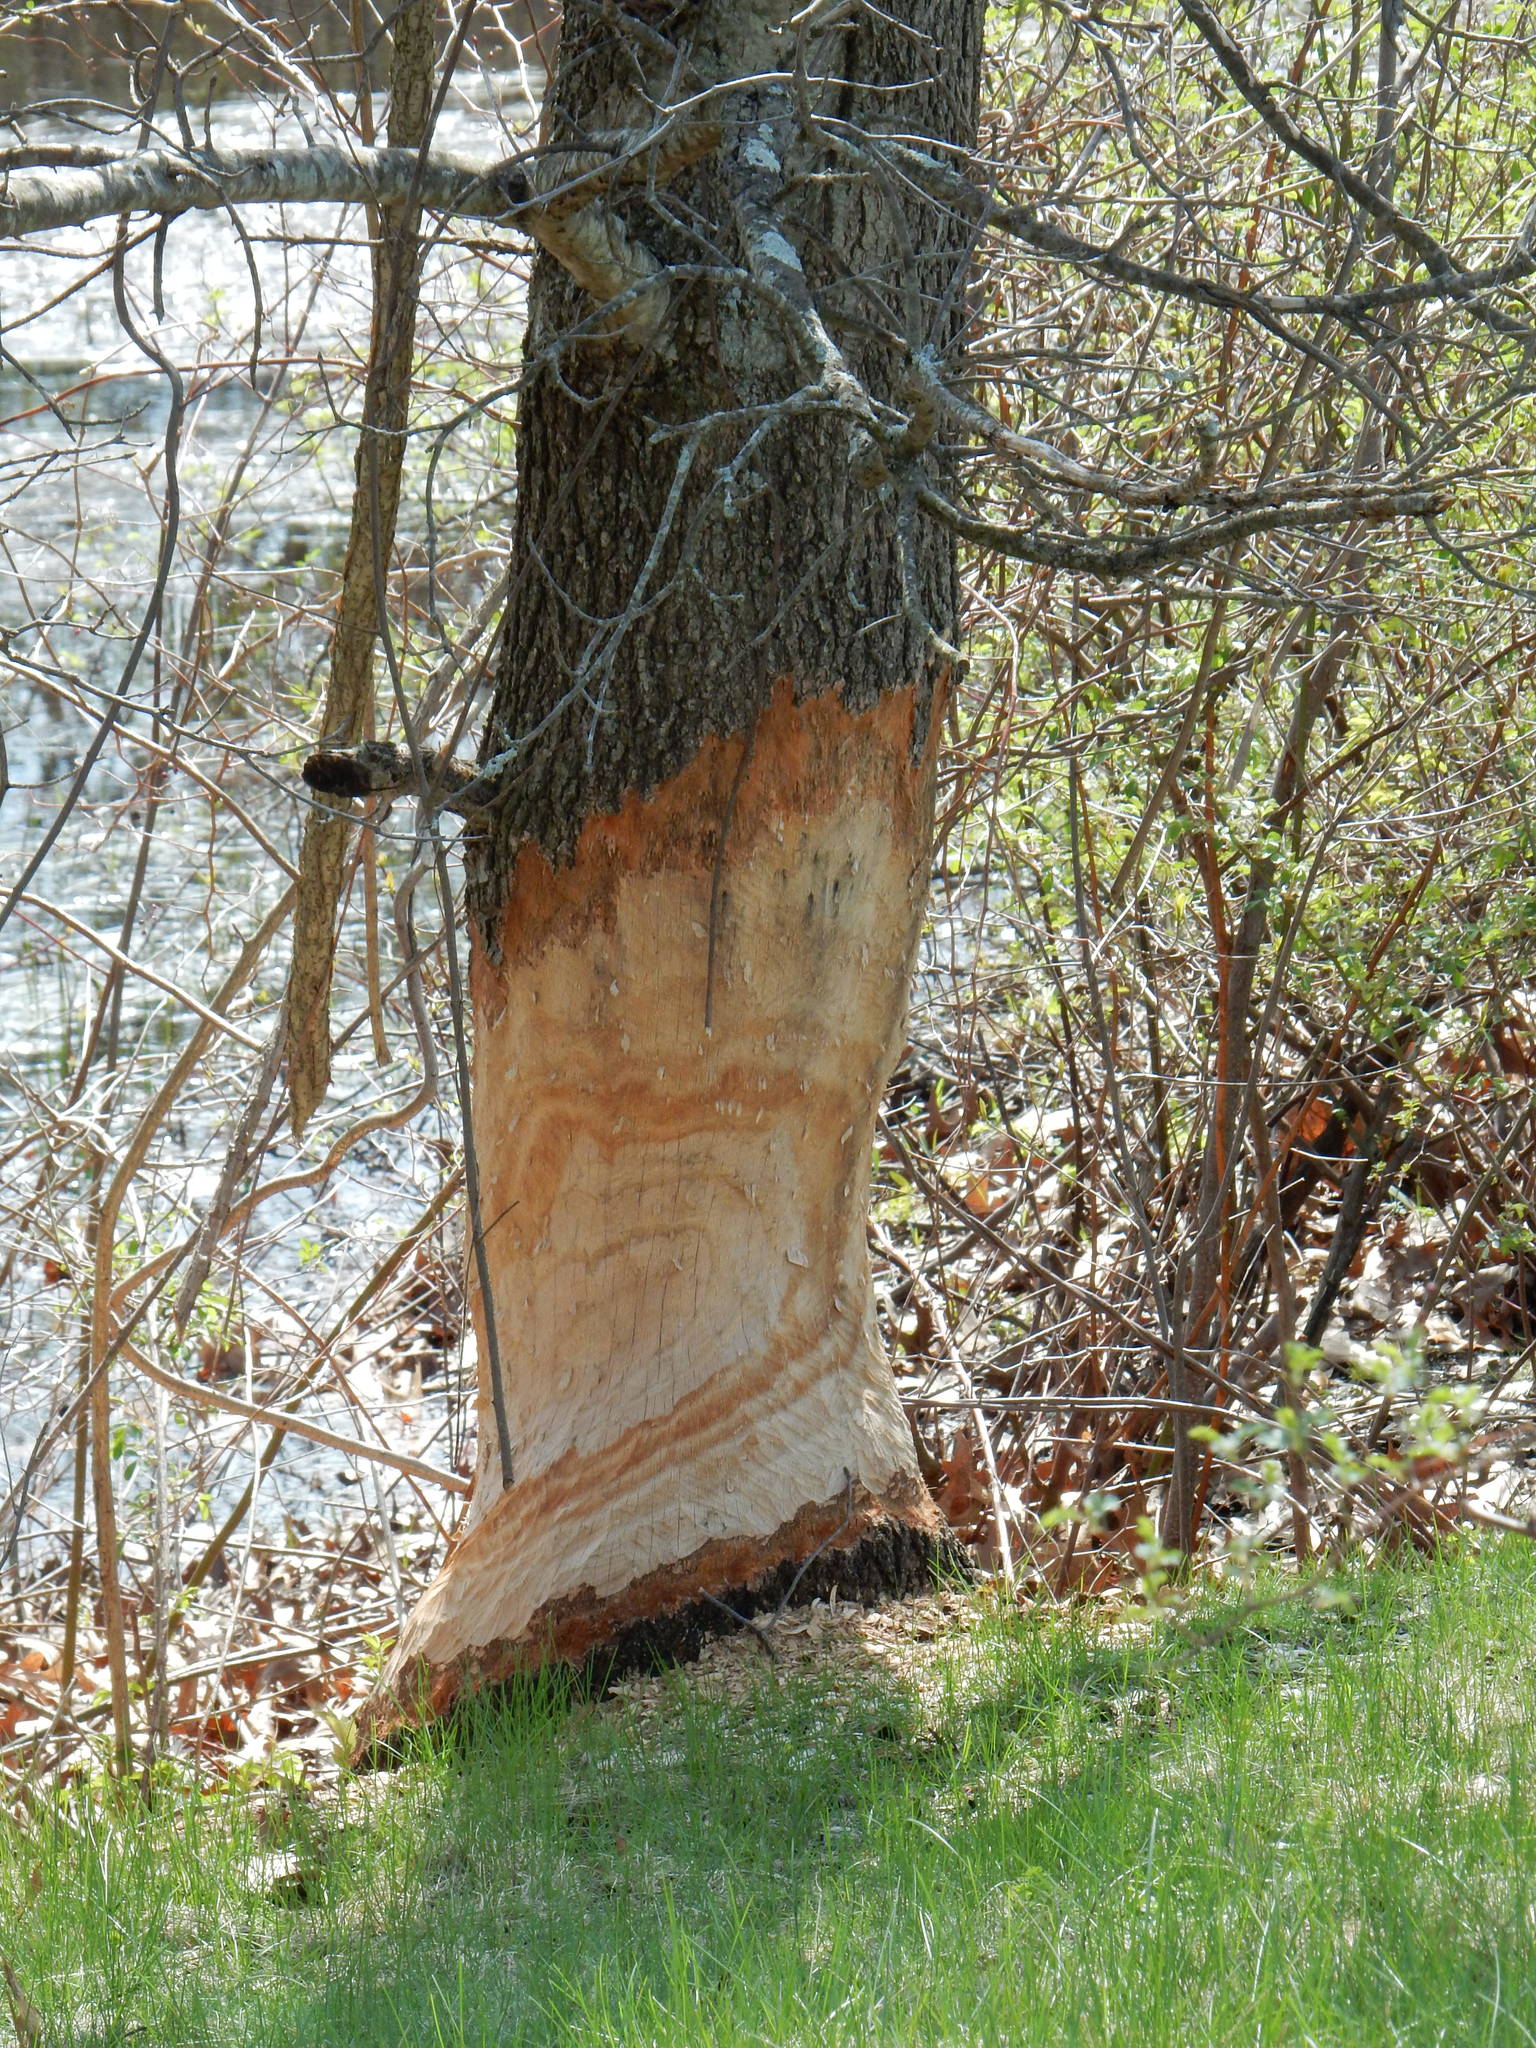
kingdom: Animalia
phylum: Chordata
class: Mammalia
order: Rodentia
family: Castoridae
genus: Castor
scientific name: Castor canadensis
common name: American beaver
